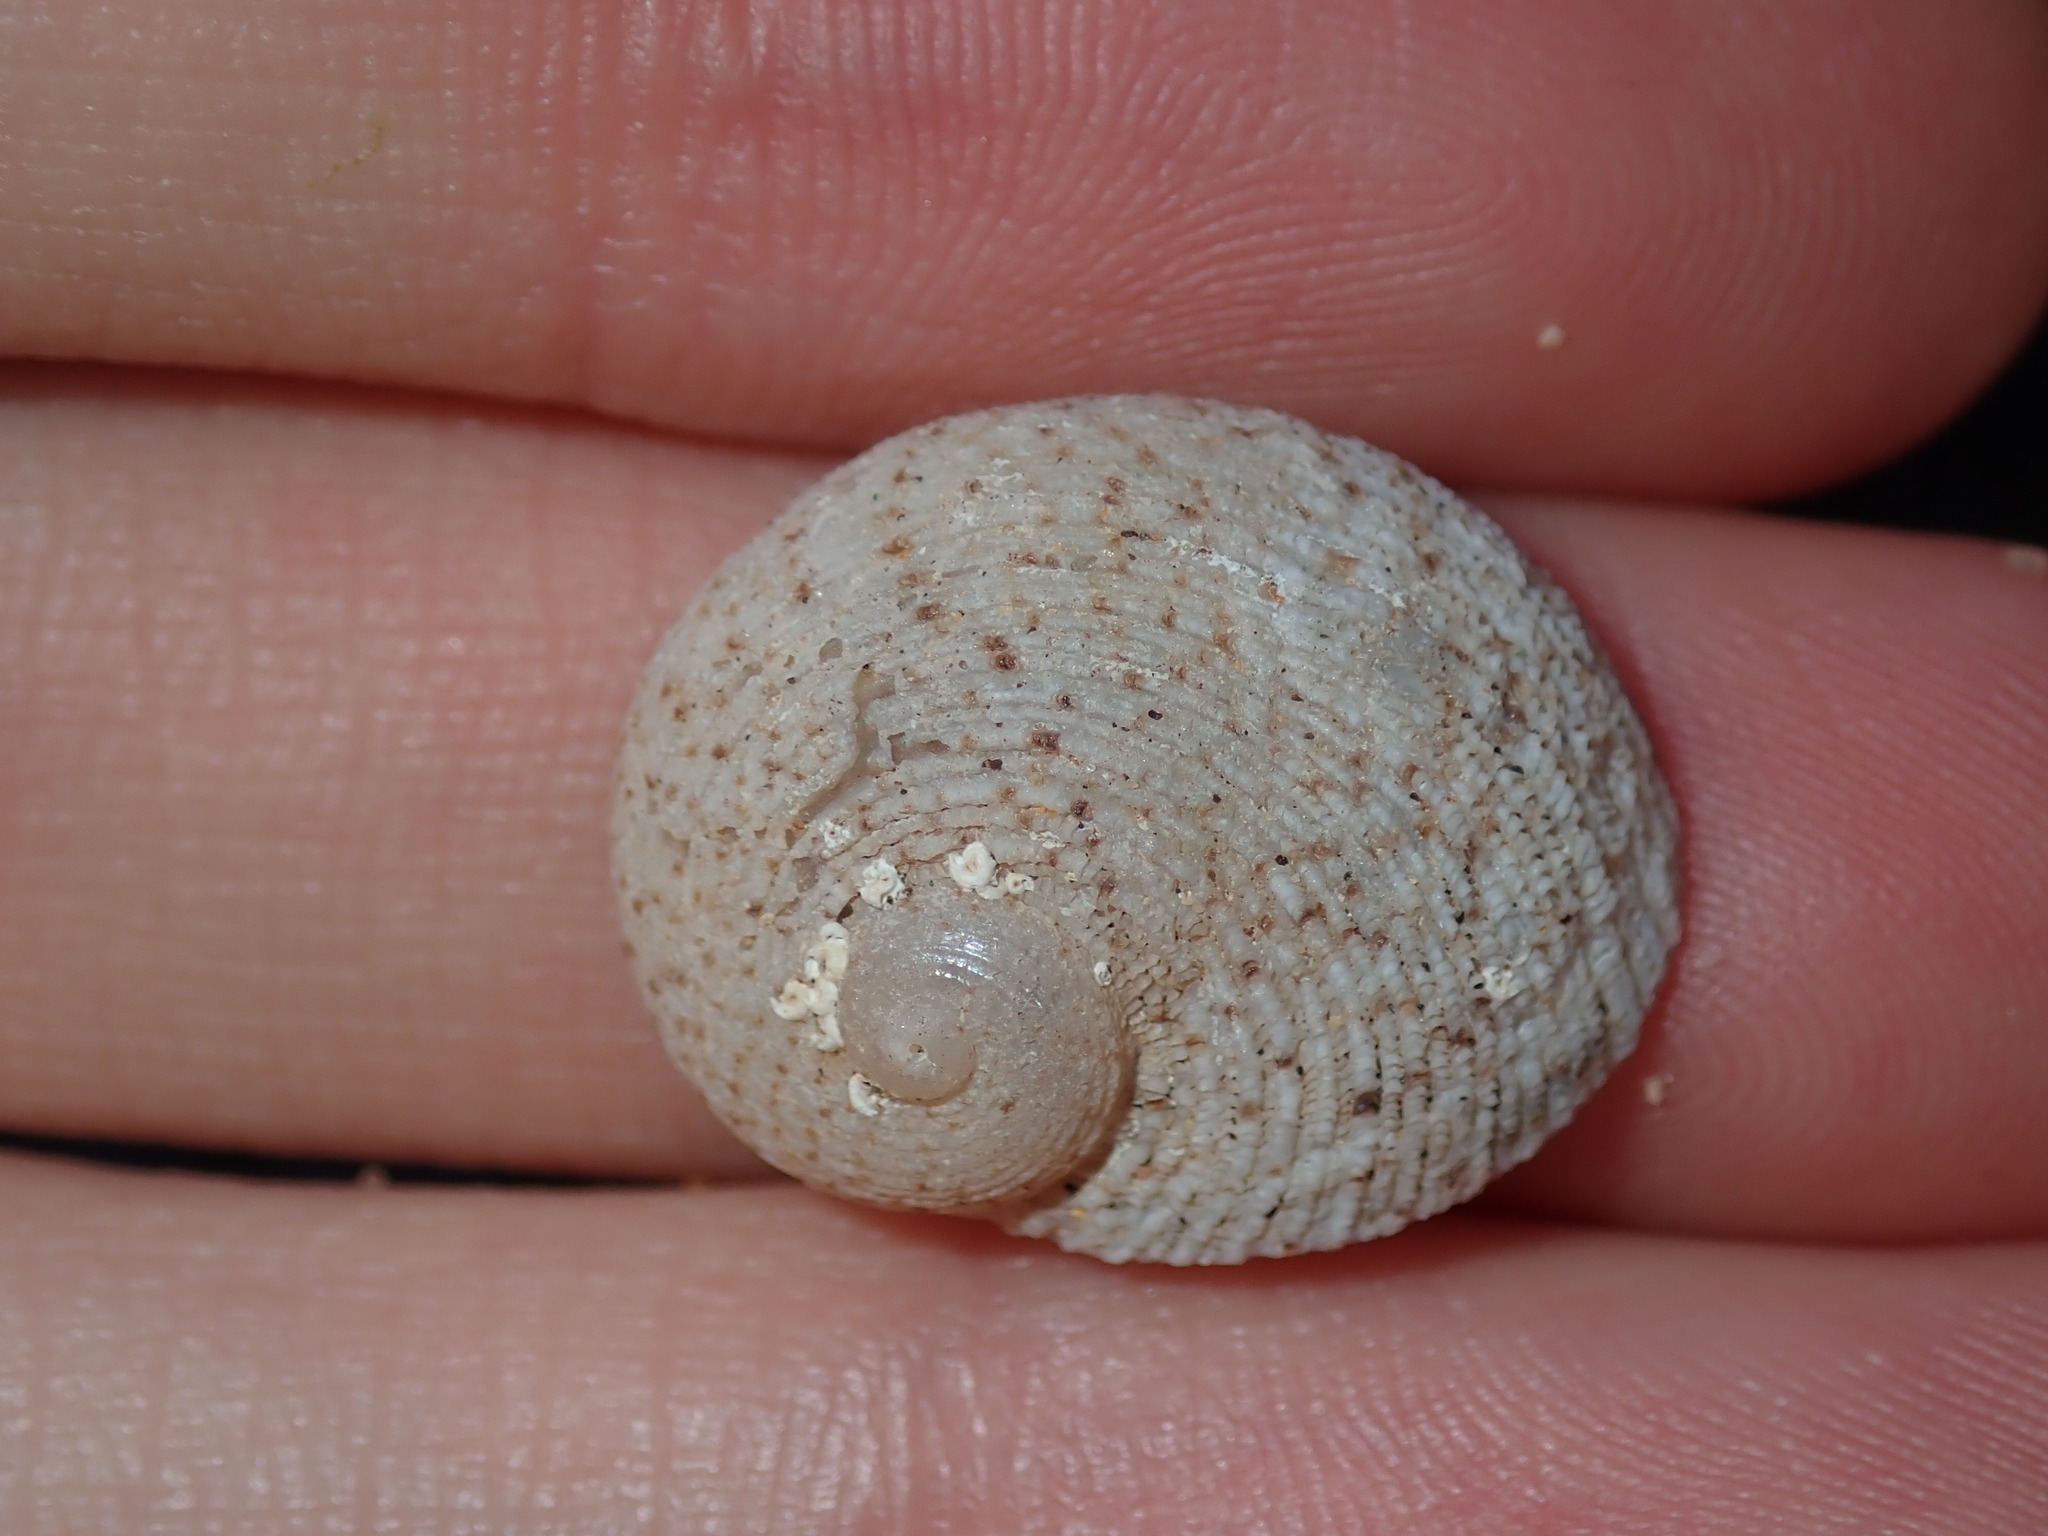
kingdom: Animalia
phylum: Mollusca
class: Gastropoda
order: Seguenziida
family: Chilodontaidae
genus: Granata
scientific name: Granata imbricata
